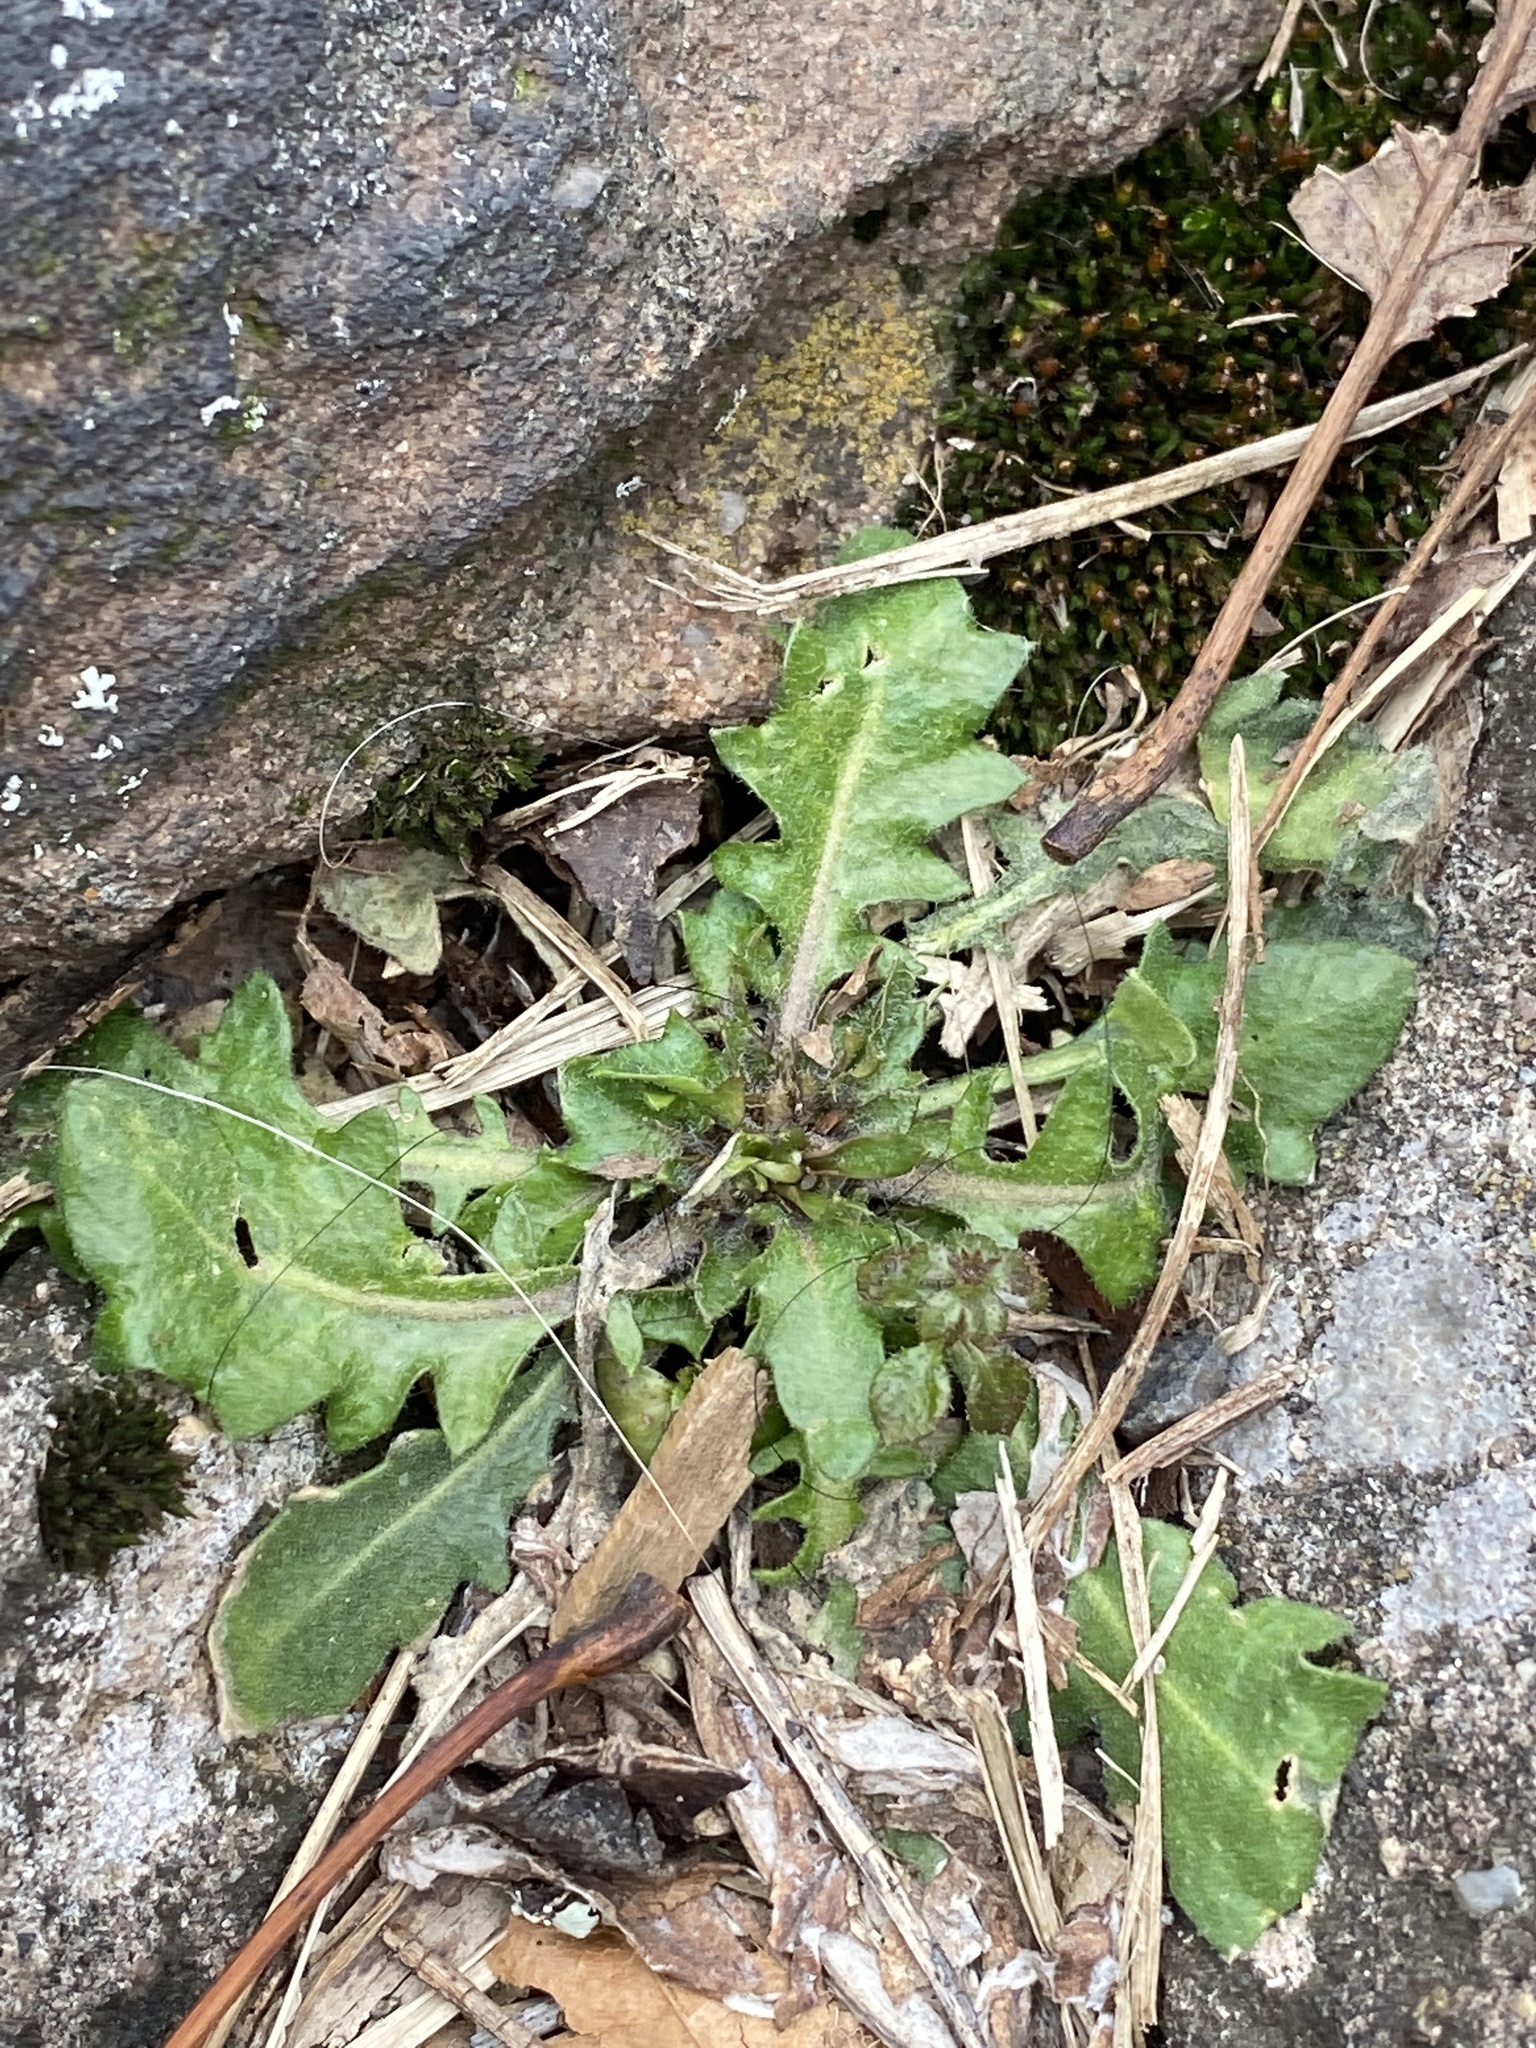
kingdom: Plantae
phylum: Tracheophyta
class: Magnoliopsida
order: Brassicales
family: Brassicaceae
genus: Arabidopsis
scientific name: Arabidopsis lyrata
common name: Lyrate rockcress
